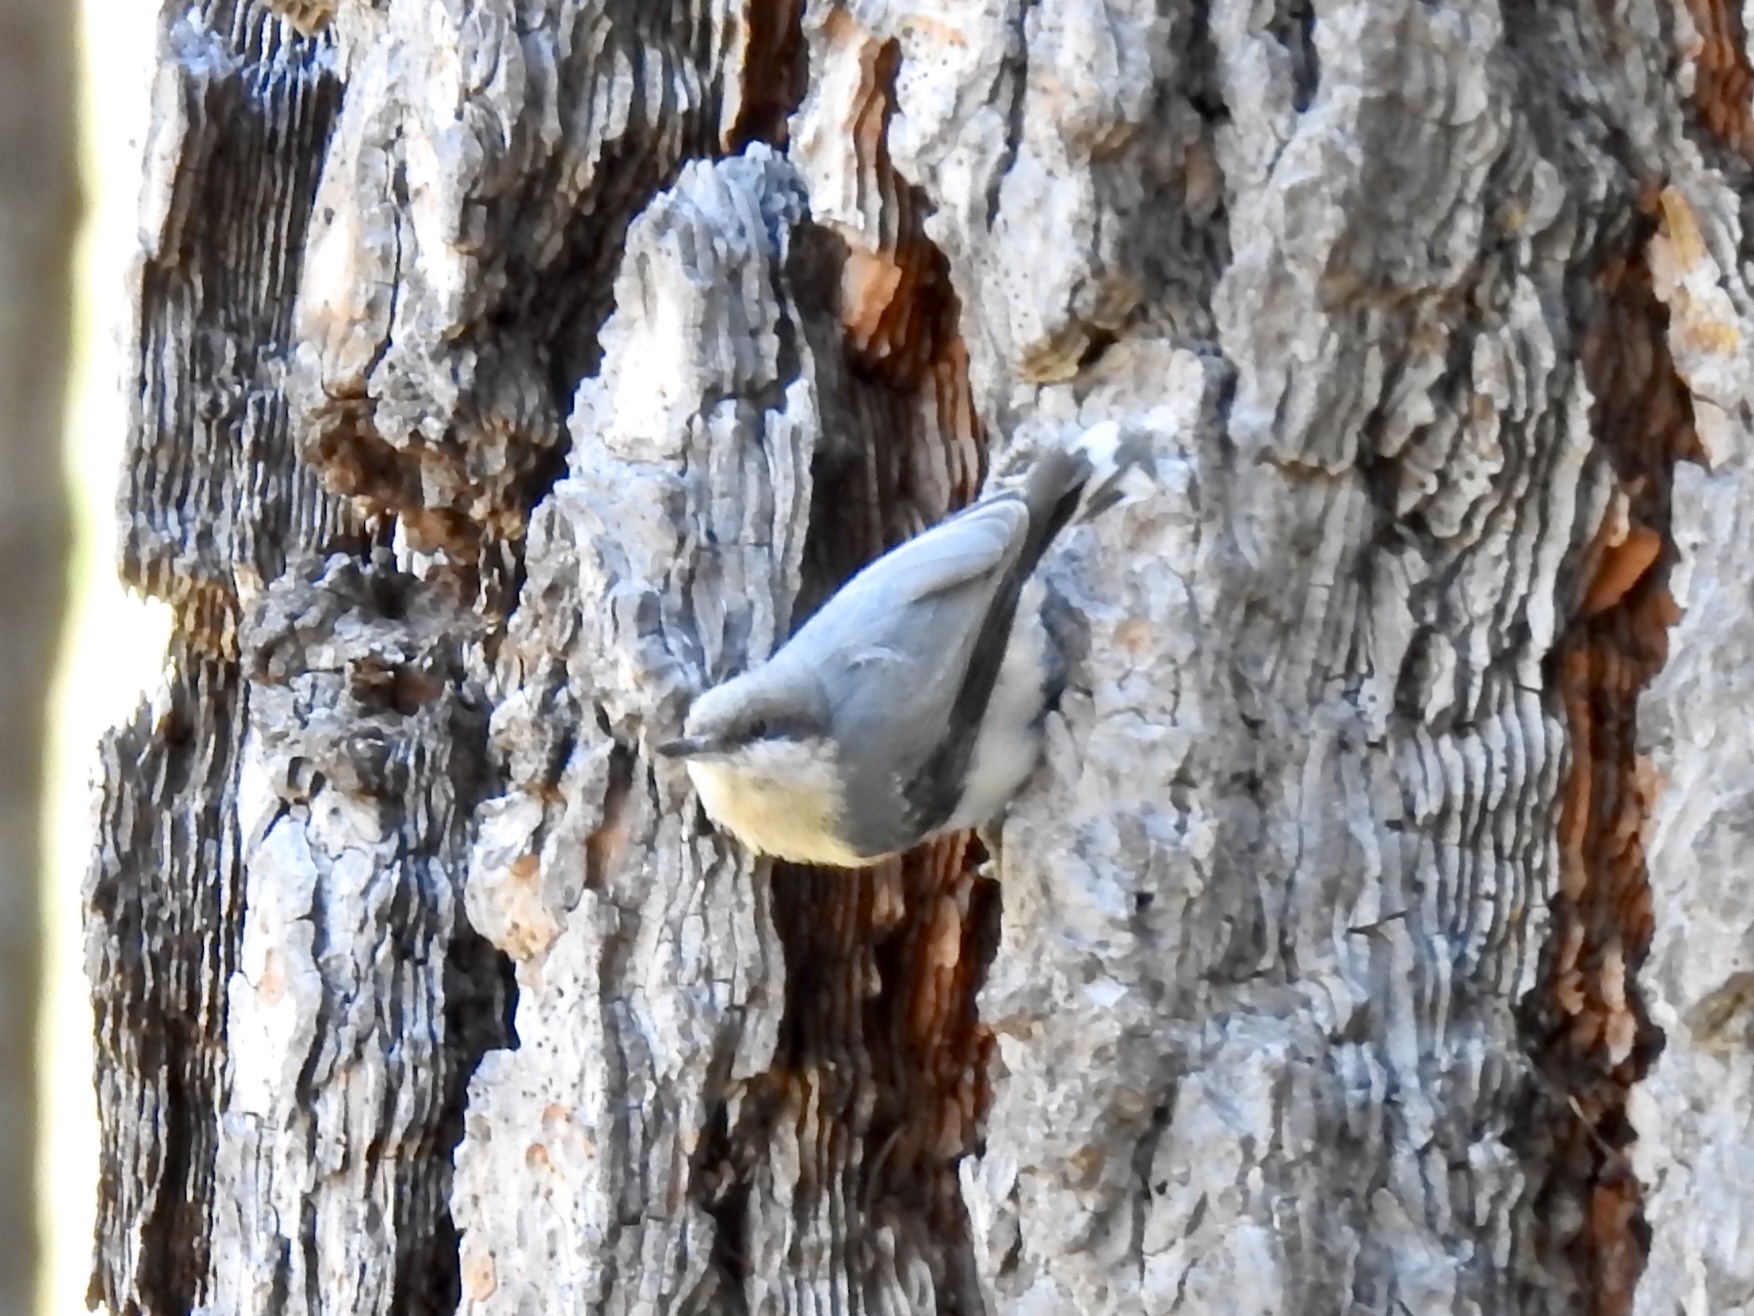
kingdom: Animalia
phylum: Chordata
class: Aves
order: Passeriformes
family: Sittidae
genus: Sitta
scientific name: Sitta pygmaea
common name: Pygmy nuthatch
